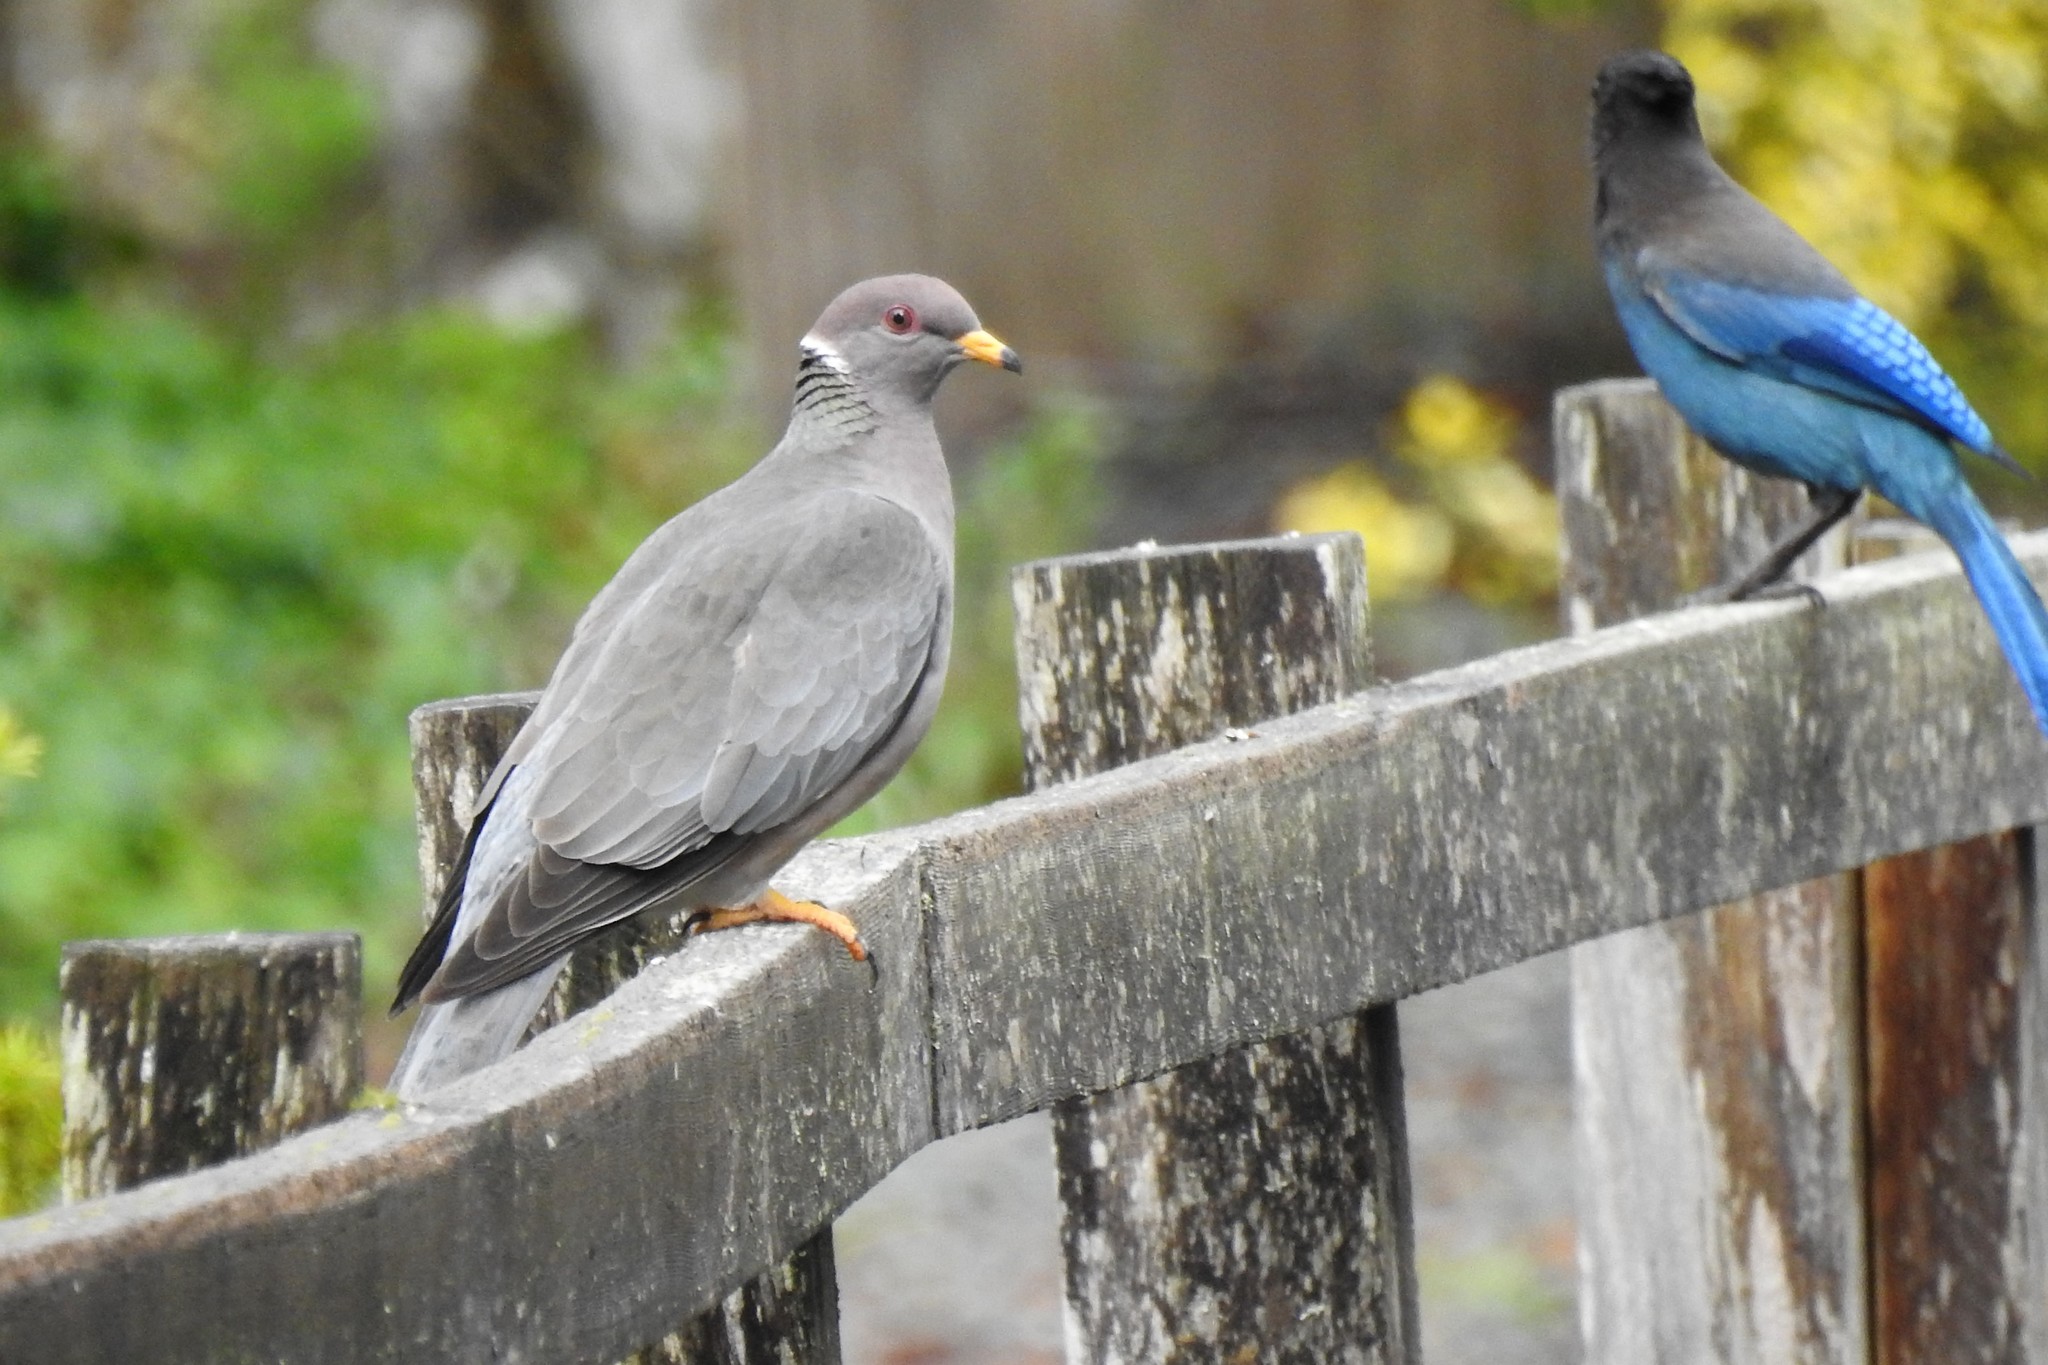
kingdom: Animalia
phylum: Chordata
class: Aves
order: Columbiformes
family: Columbidae
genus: Patagioenas
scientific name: Patagioenas fasciata
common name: Band-tailed pigeon
